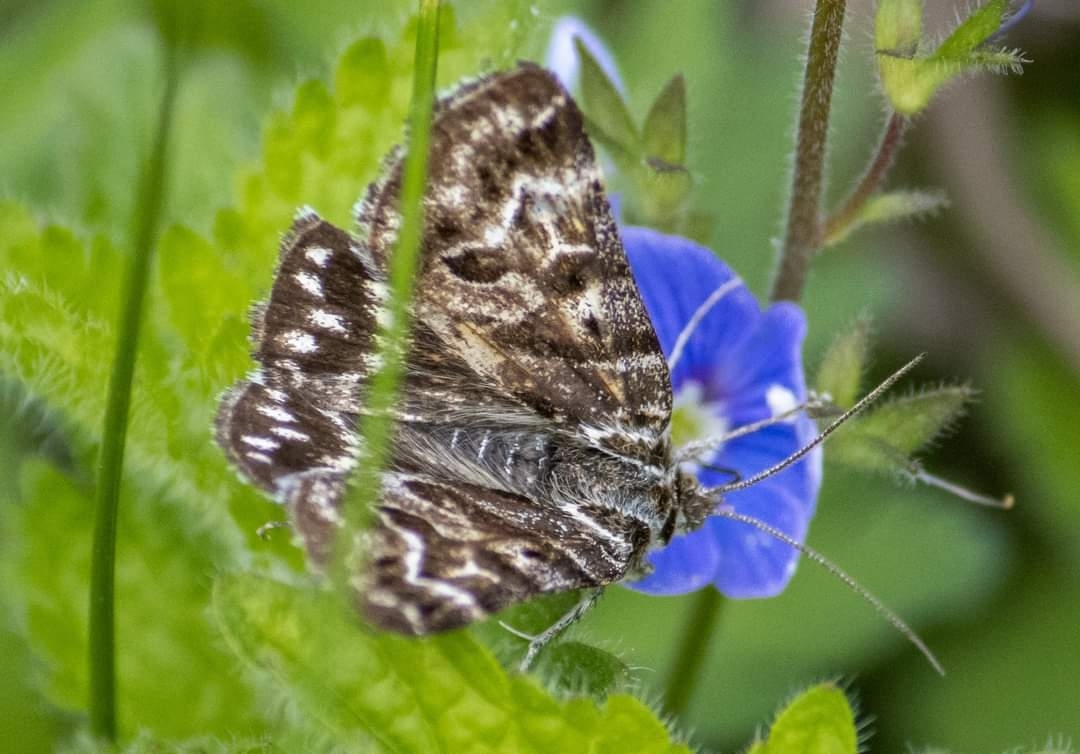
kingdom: Animalia
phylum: Arthropoda
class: Insecta
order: Lepidoptera
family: Erebidae
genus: Callistege
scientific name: Callistege mi
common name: Mother shipton
